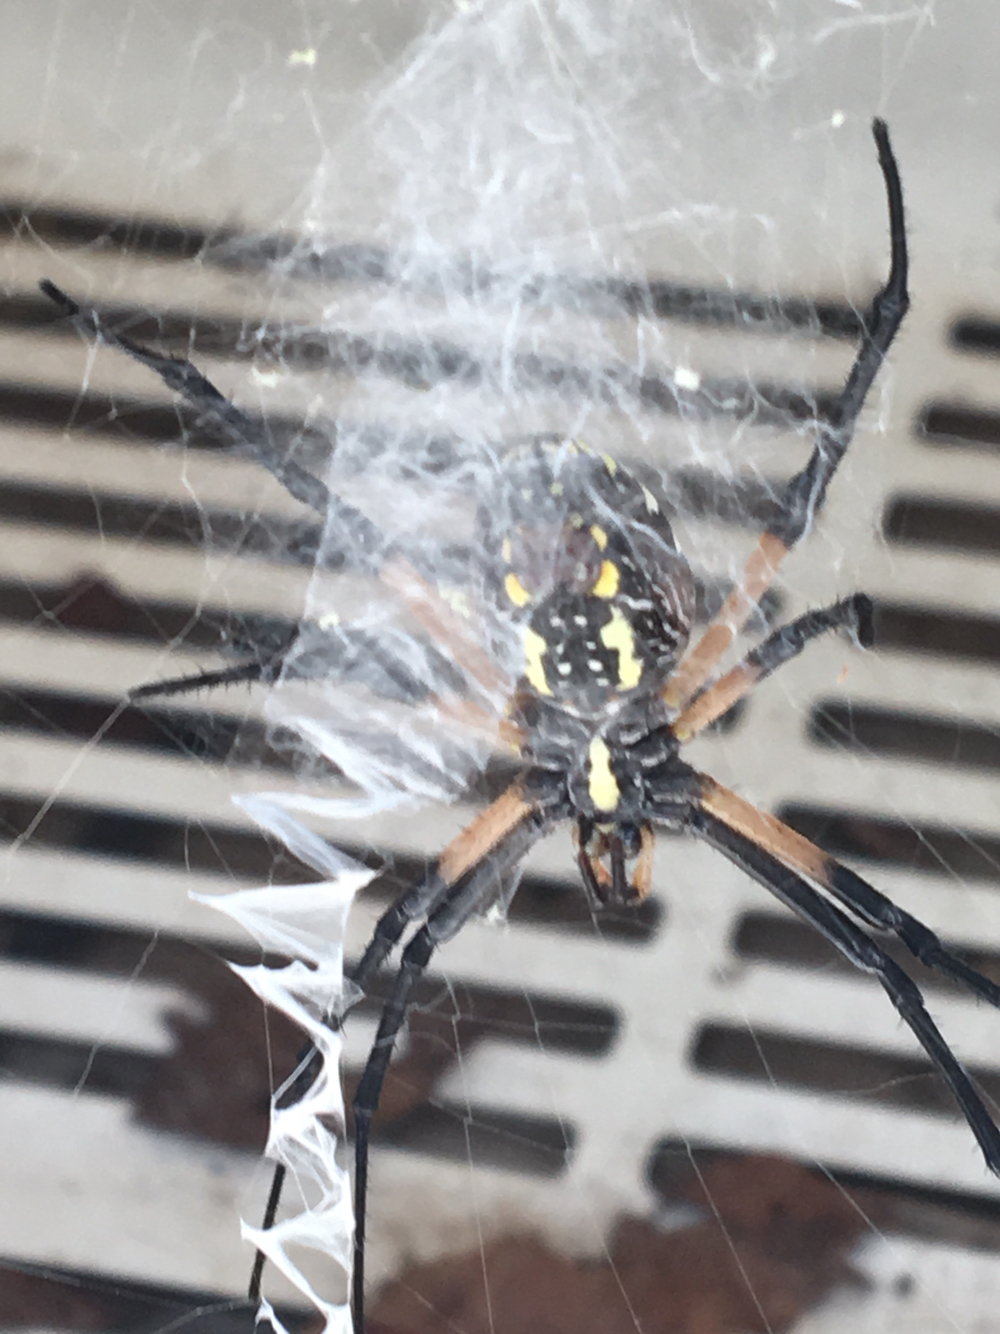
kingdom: Animalia
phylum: Arthropoda
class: Arachnida
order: Araneae
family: Araneidae
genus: Argiope
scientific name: Argiope aurantia
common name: Orb weavers
